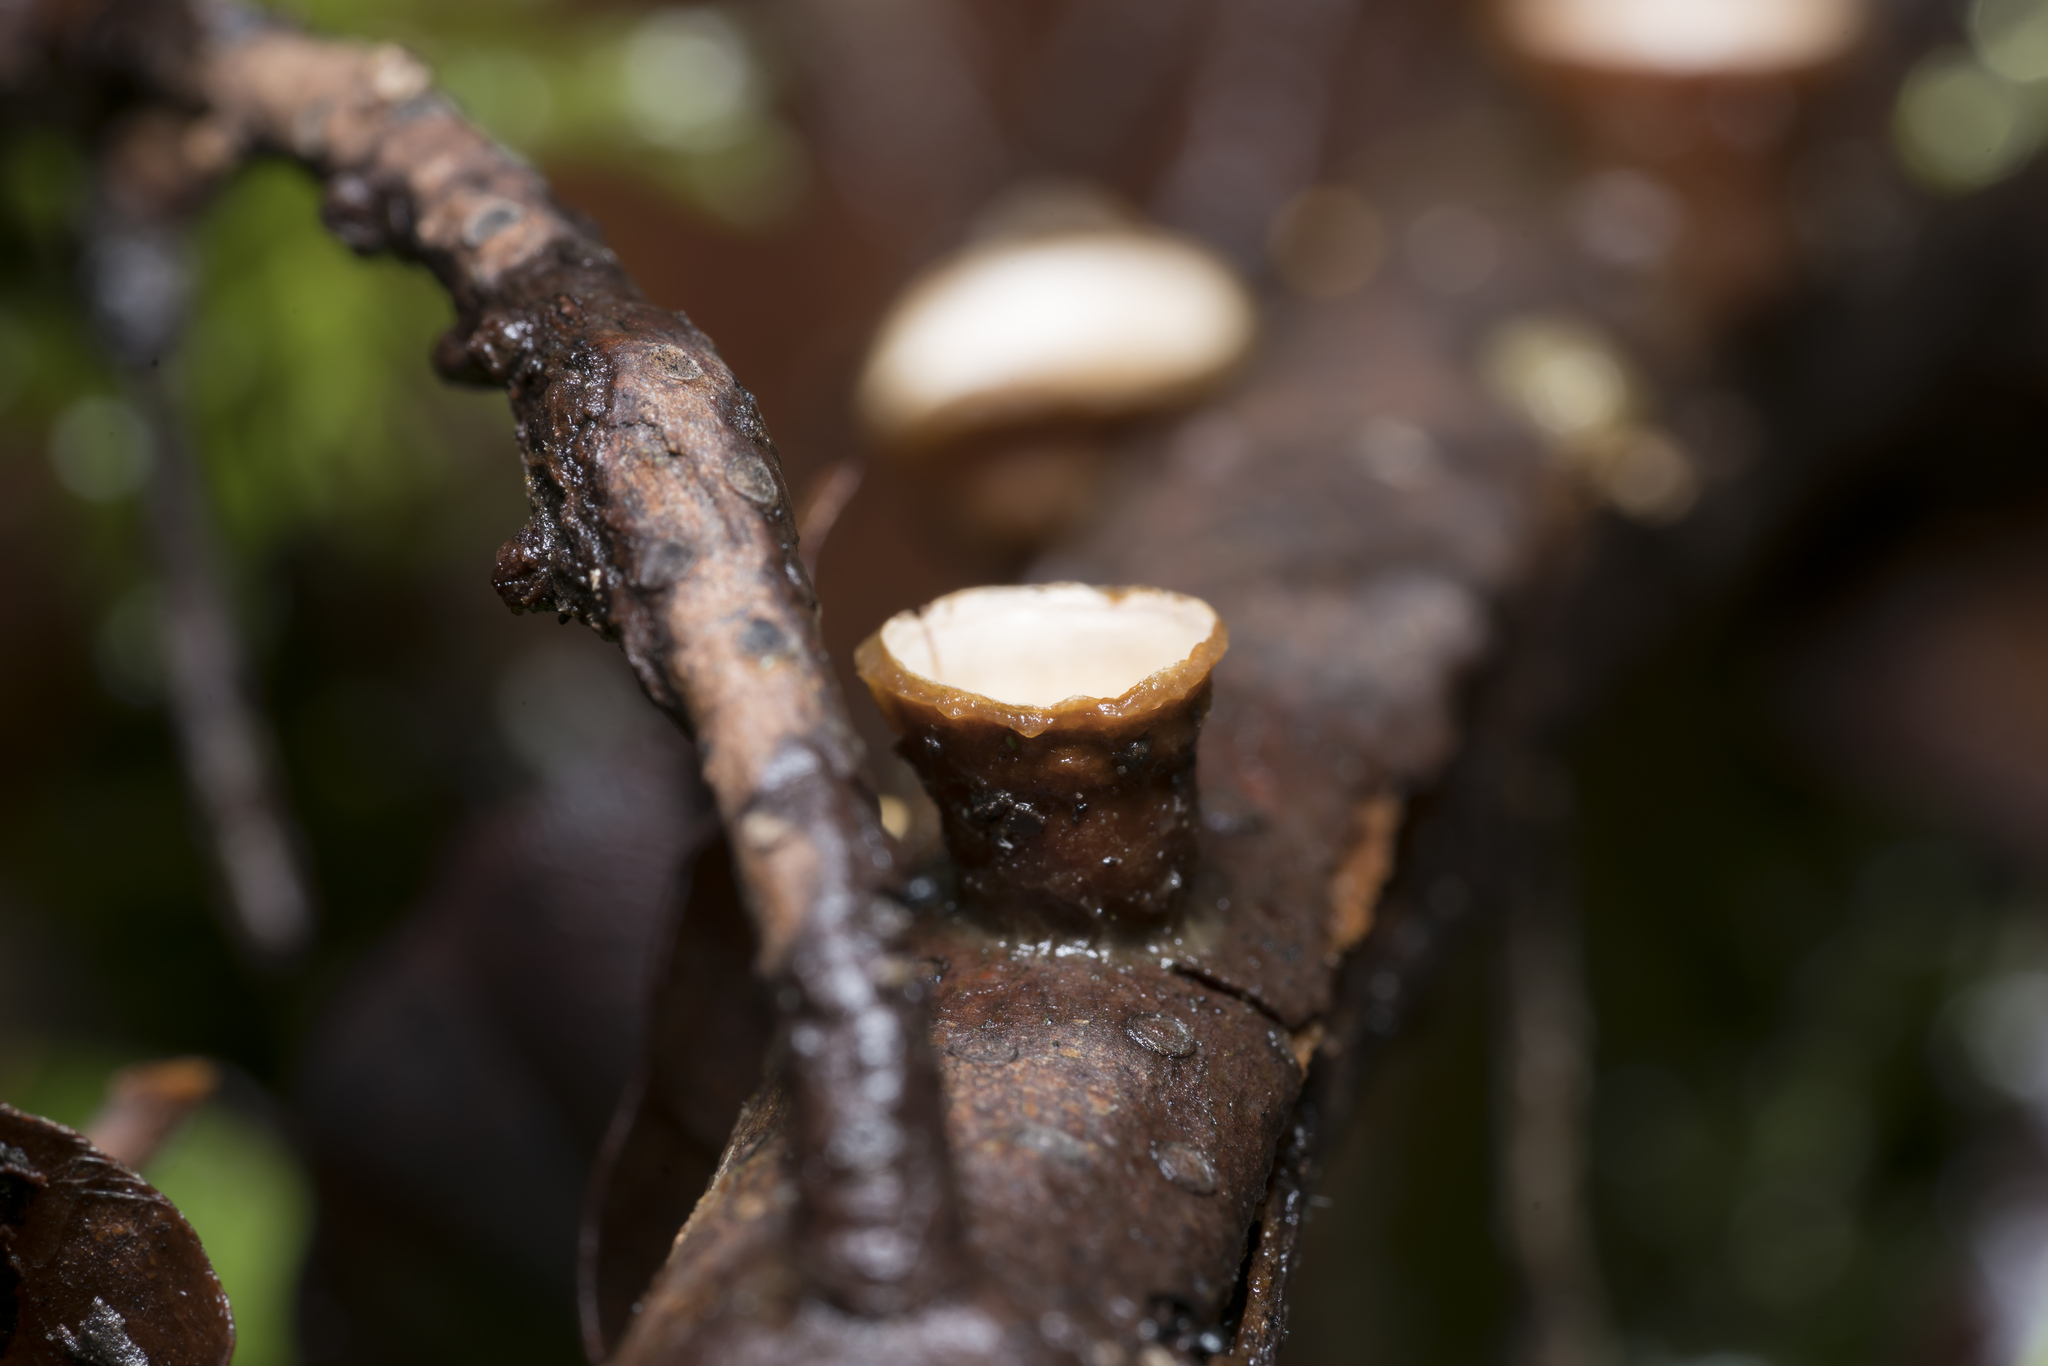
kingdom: Fungi
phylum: Basidiomycota
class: Agaricomycetes
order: Agaricales
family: Nidulariaceae
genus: Crucibulum
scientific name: Crucibulum laeve
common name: Common bird's nest
